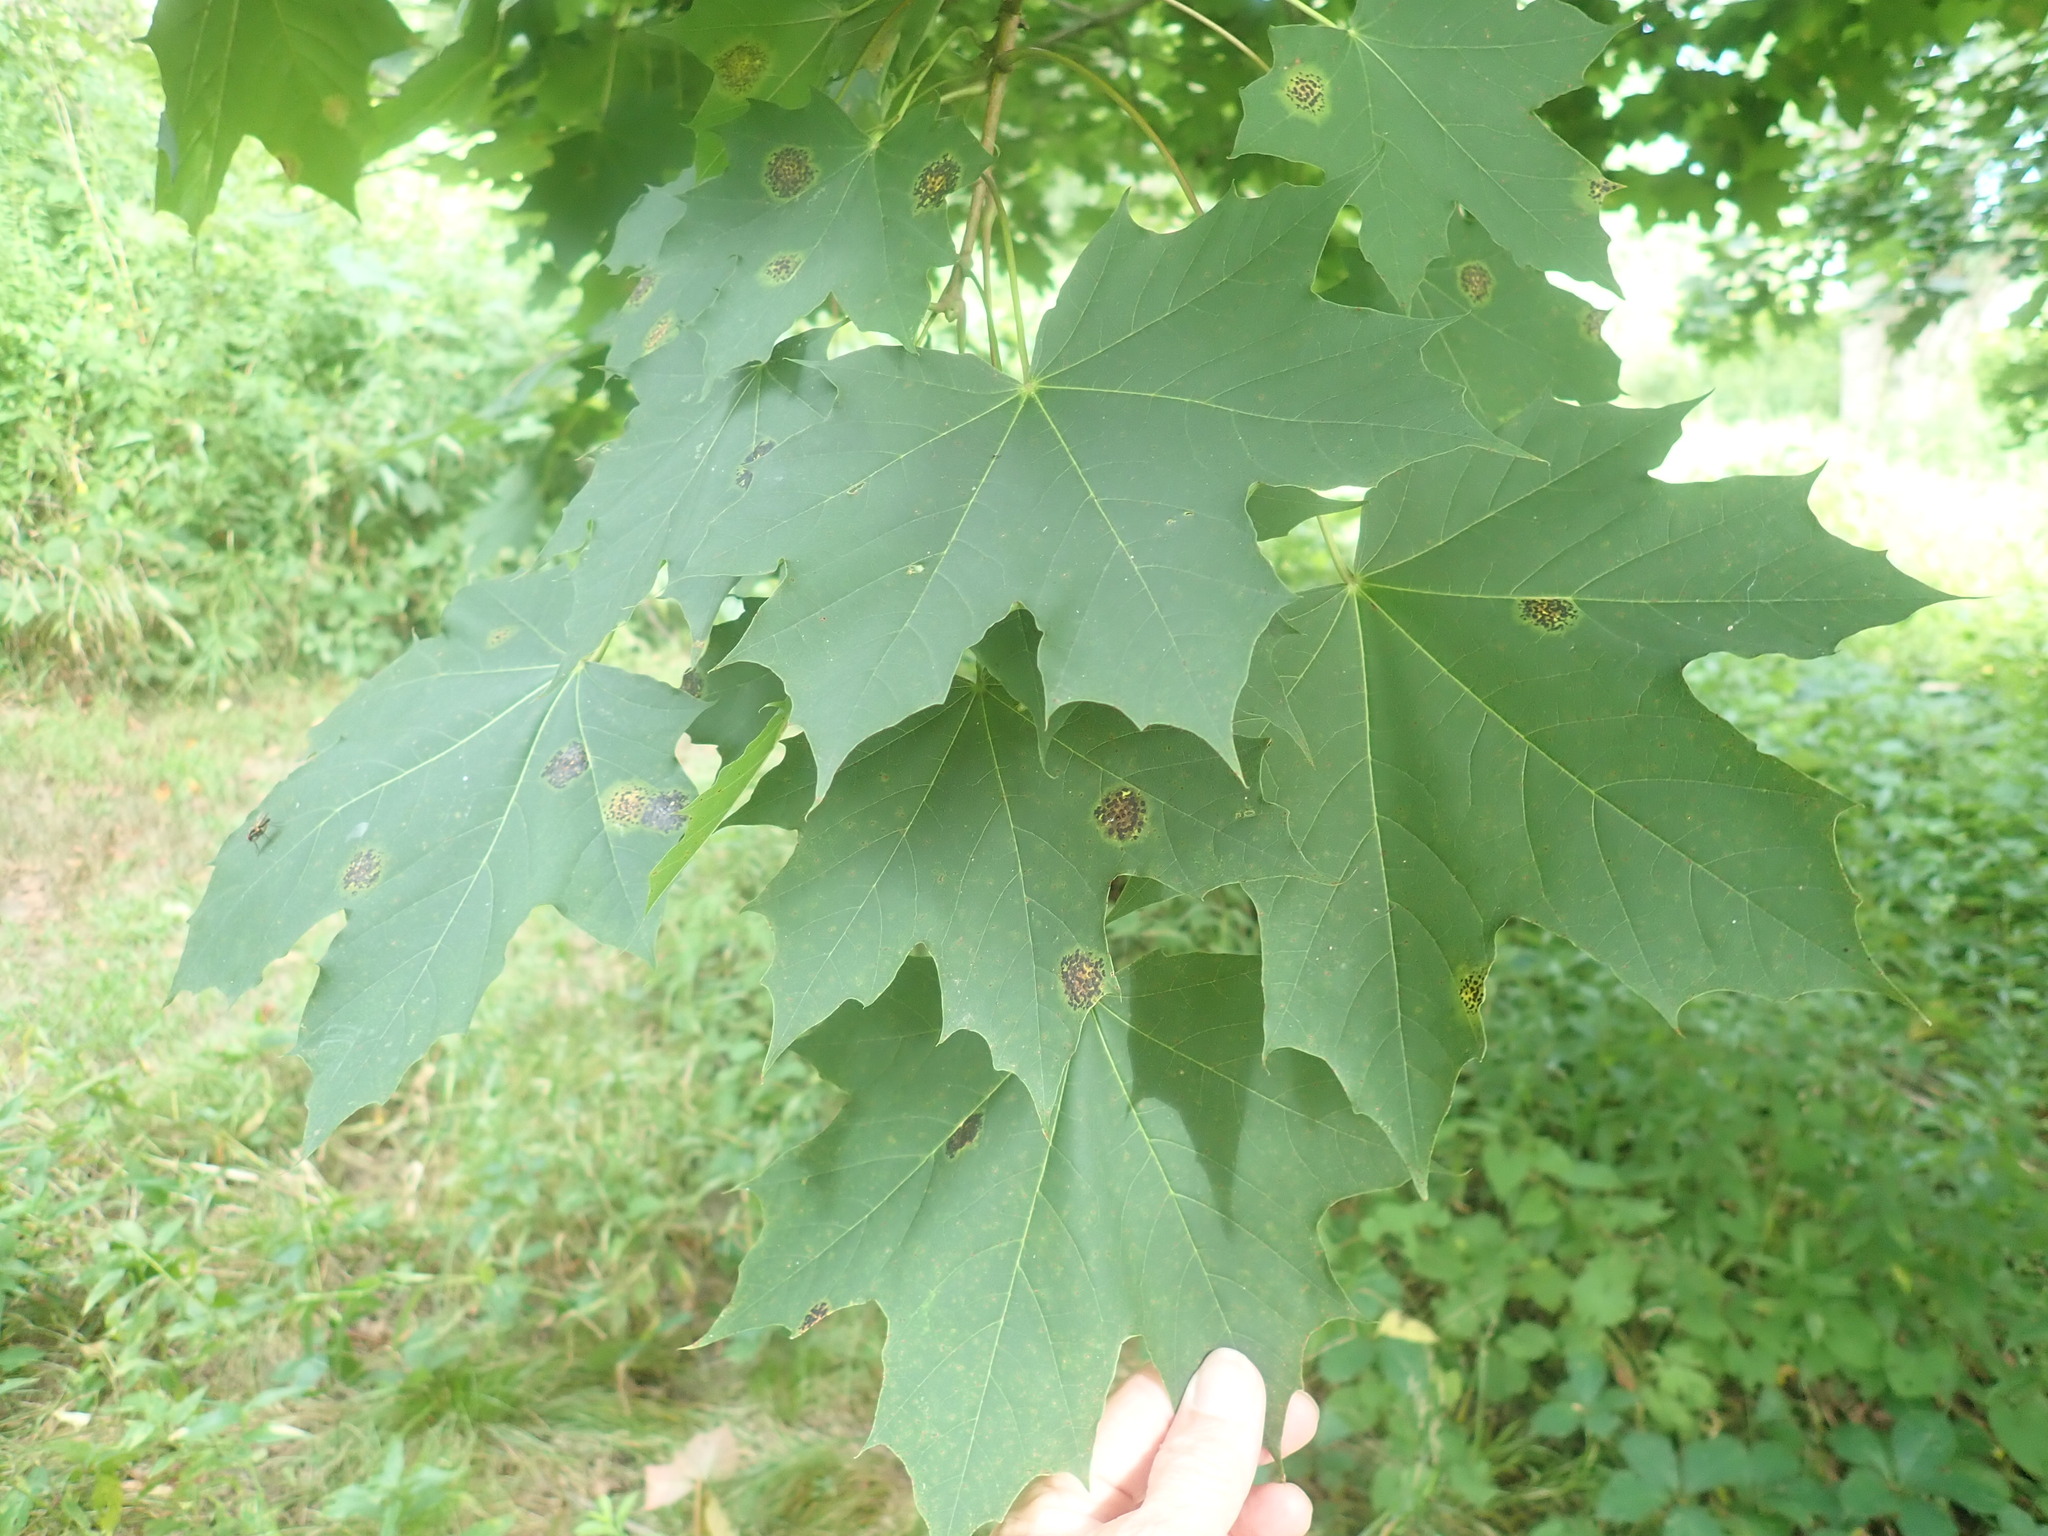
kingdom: Plantae
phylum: Tracheophyta
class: Magnoliopsida
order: Sapindales
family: Sapindaceae
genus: Acer
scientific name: Acer platanoides
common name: Norway maple
